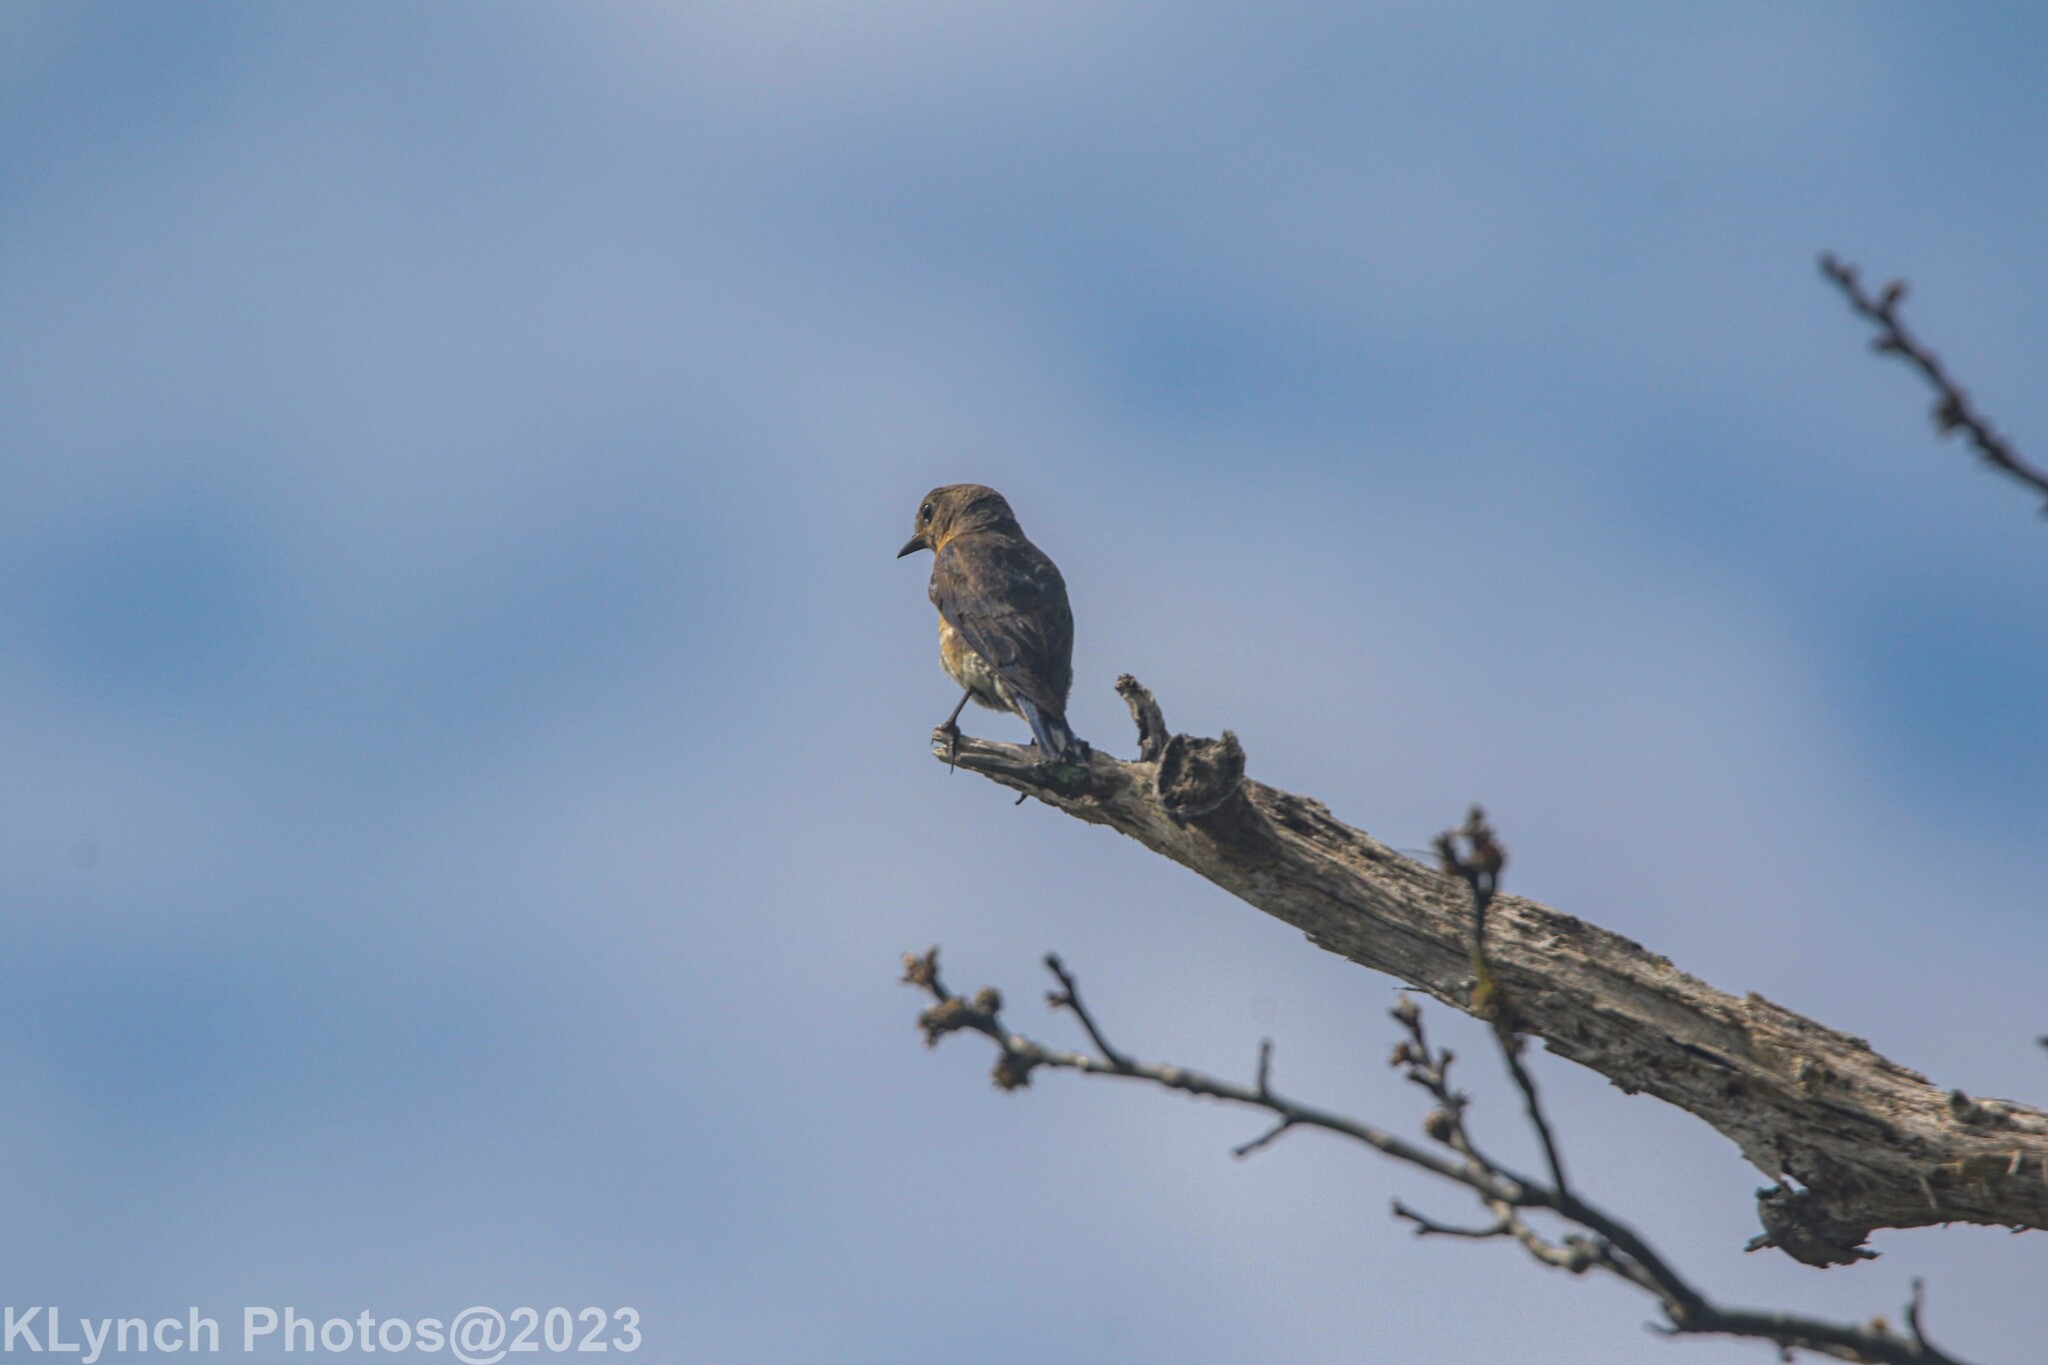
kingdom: Animalia
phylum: Chordata
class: Aves
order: Passeriformes
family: Turdidae
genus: Sialia
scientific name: Sialia sialis
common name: Eastern bluebird
